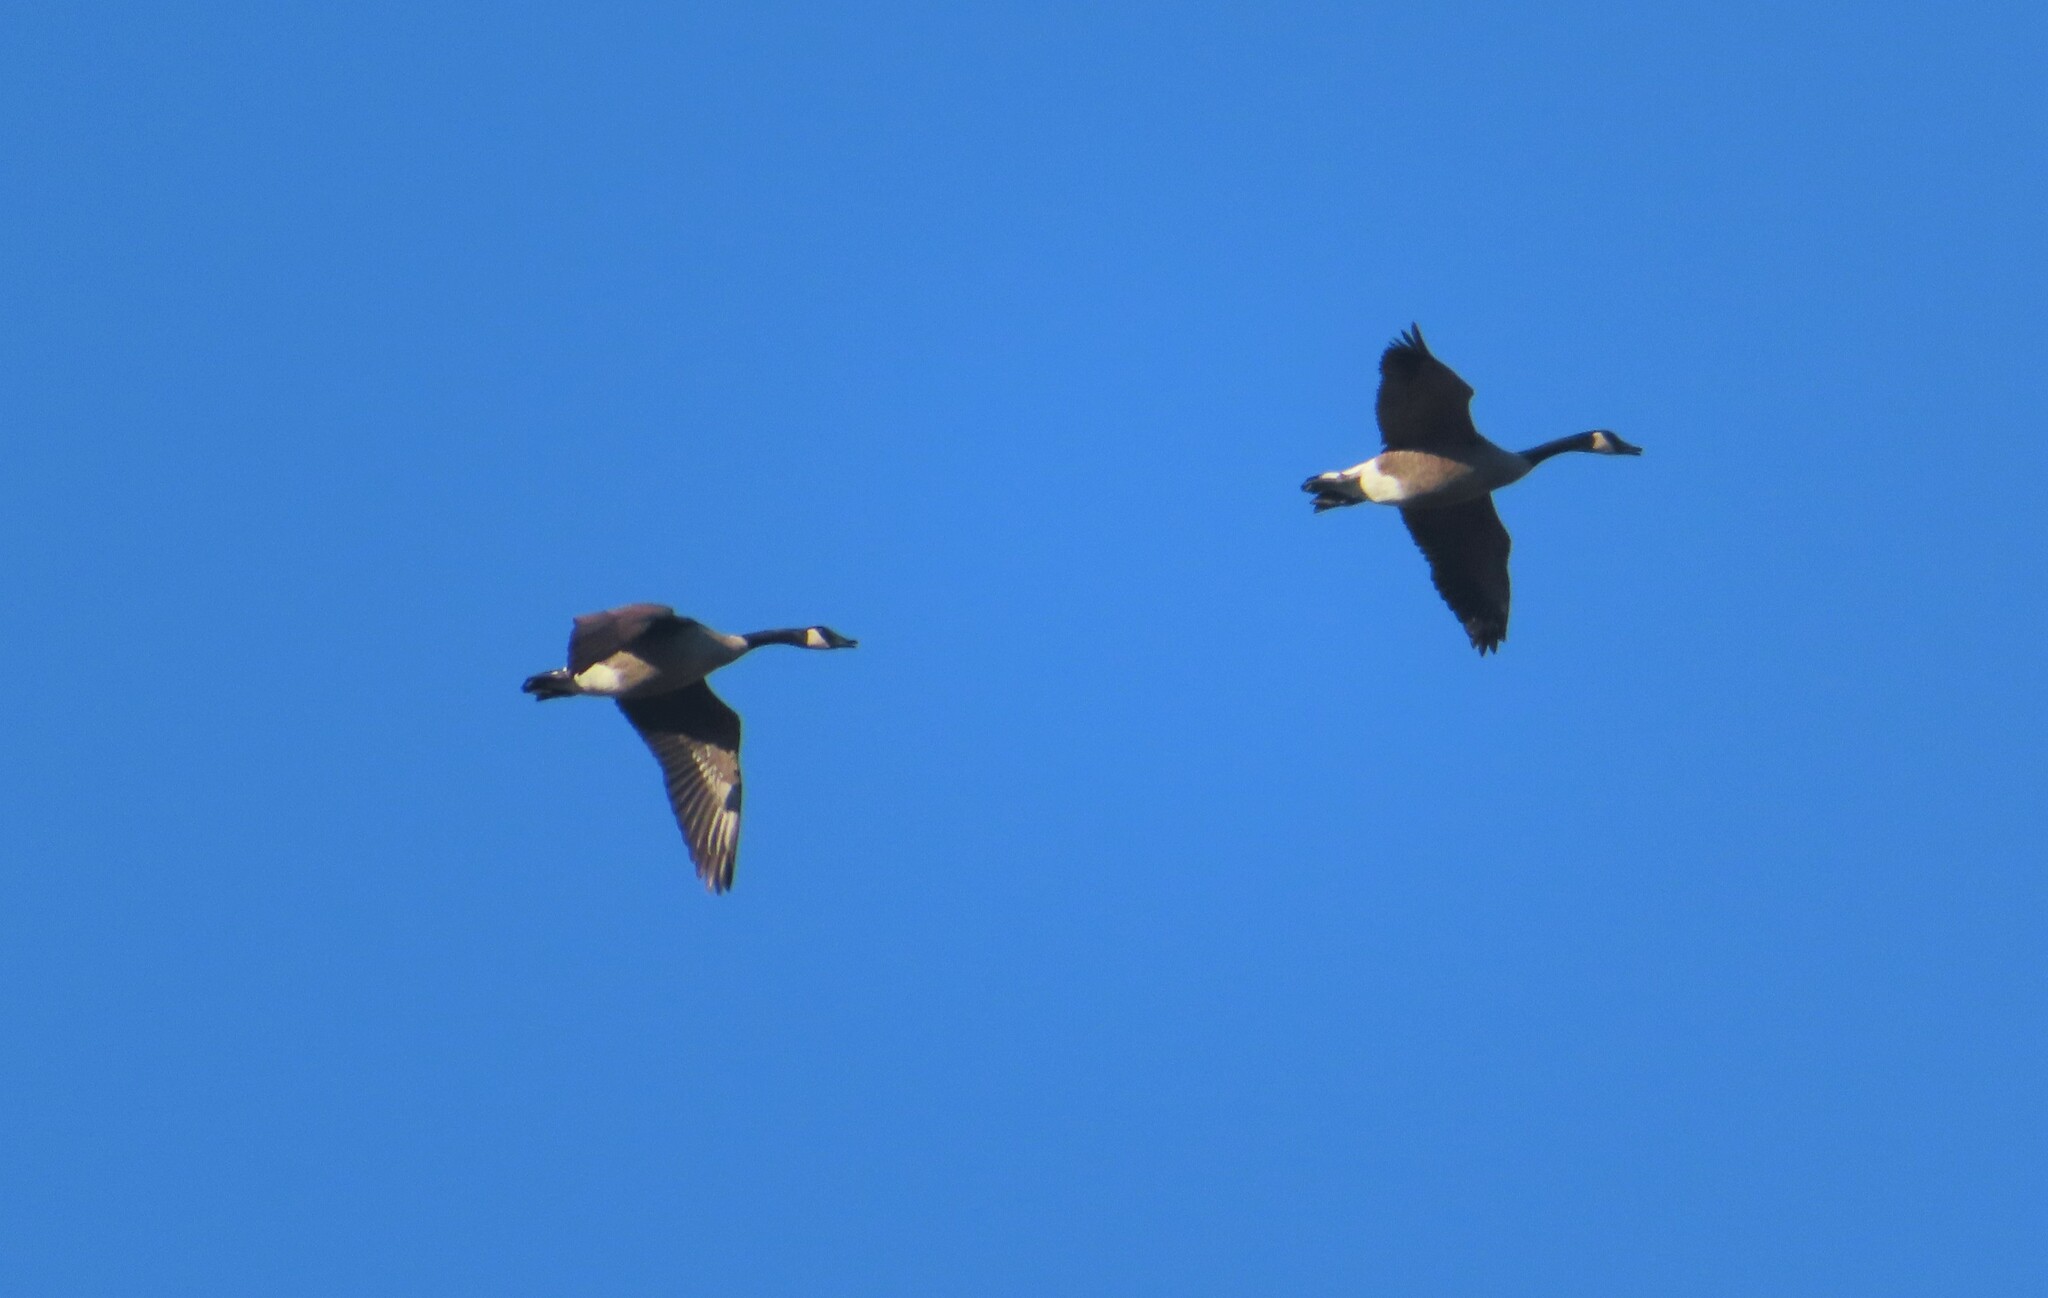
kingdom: Animalia
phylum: Chordata
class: Aves
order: Anseriformes
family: Anatidae
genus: Branta
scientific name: Branta canadensis
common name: Canada goose
